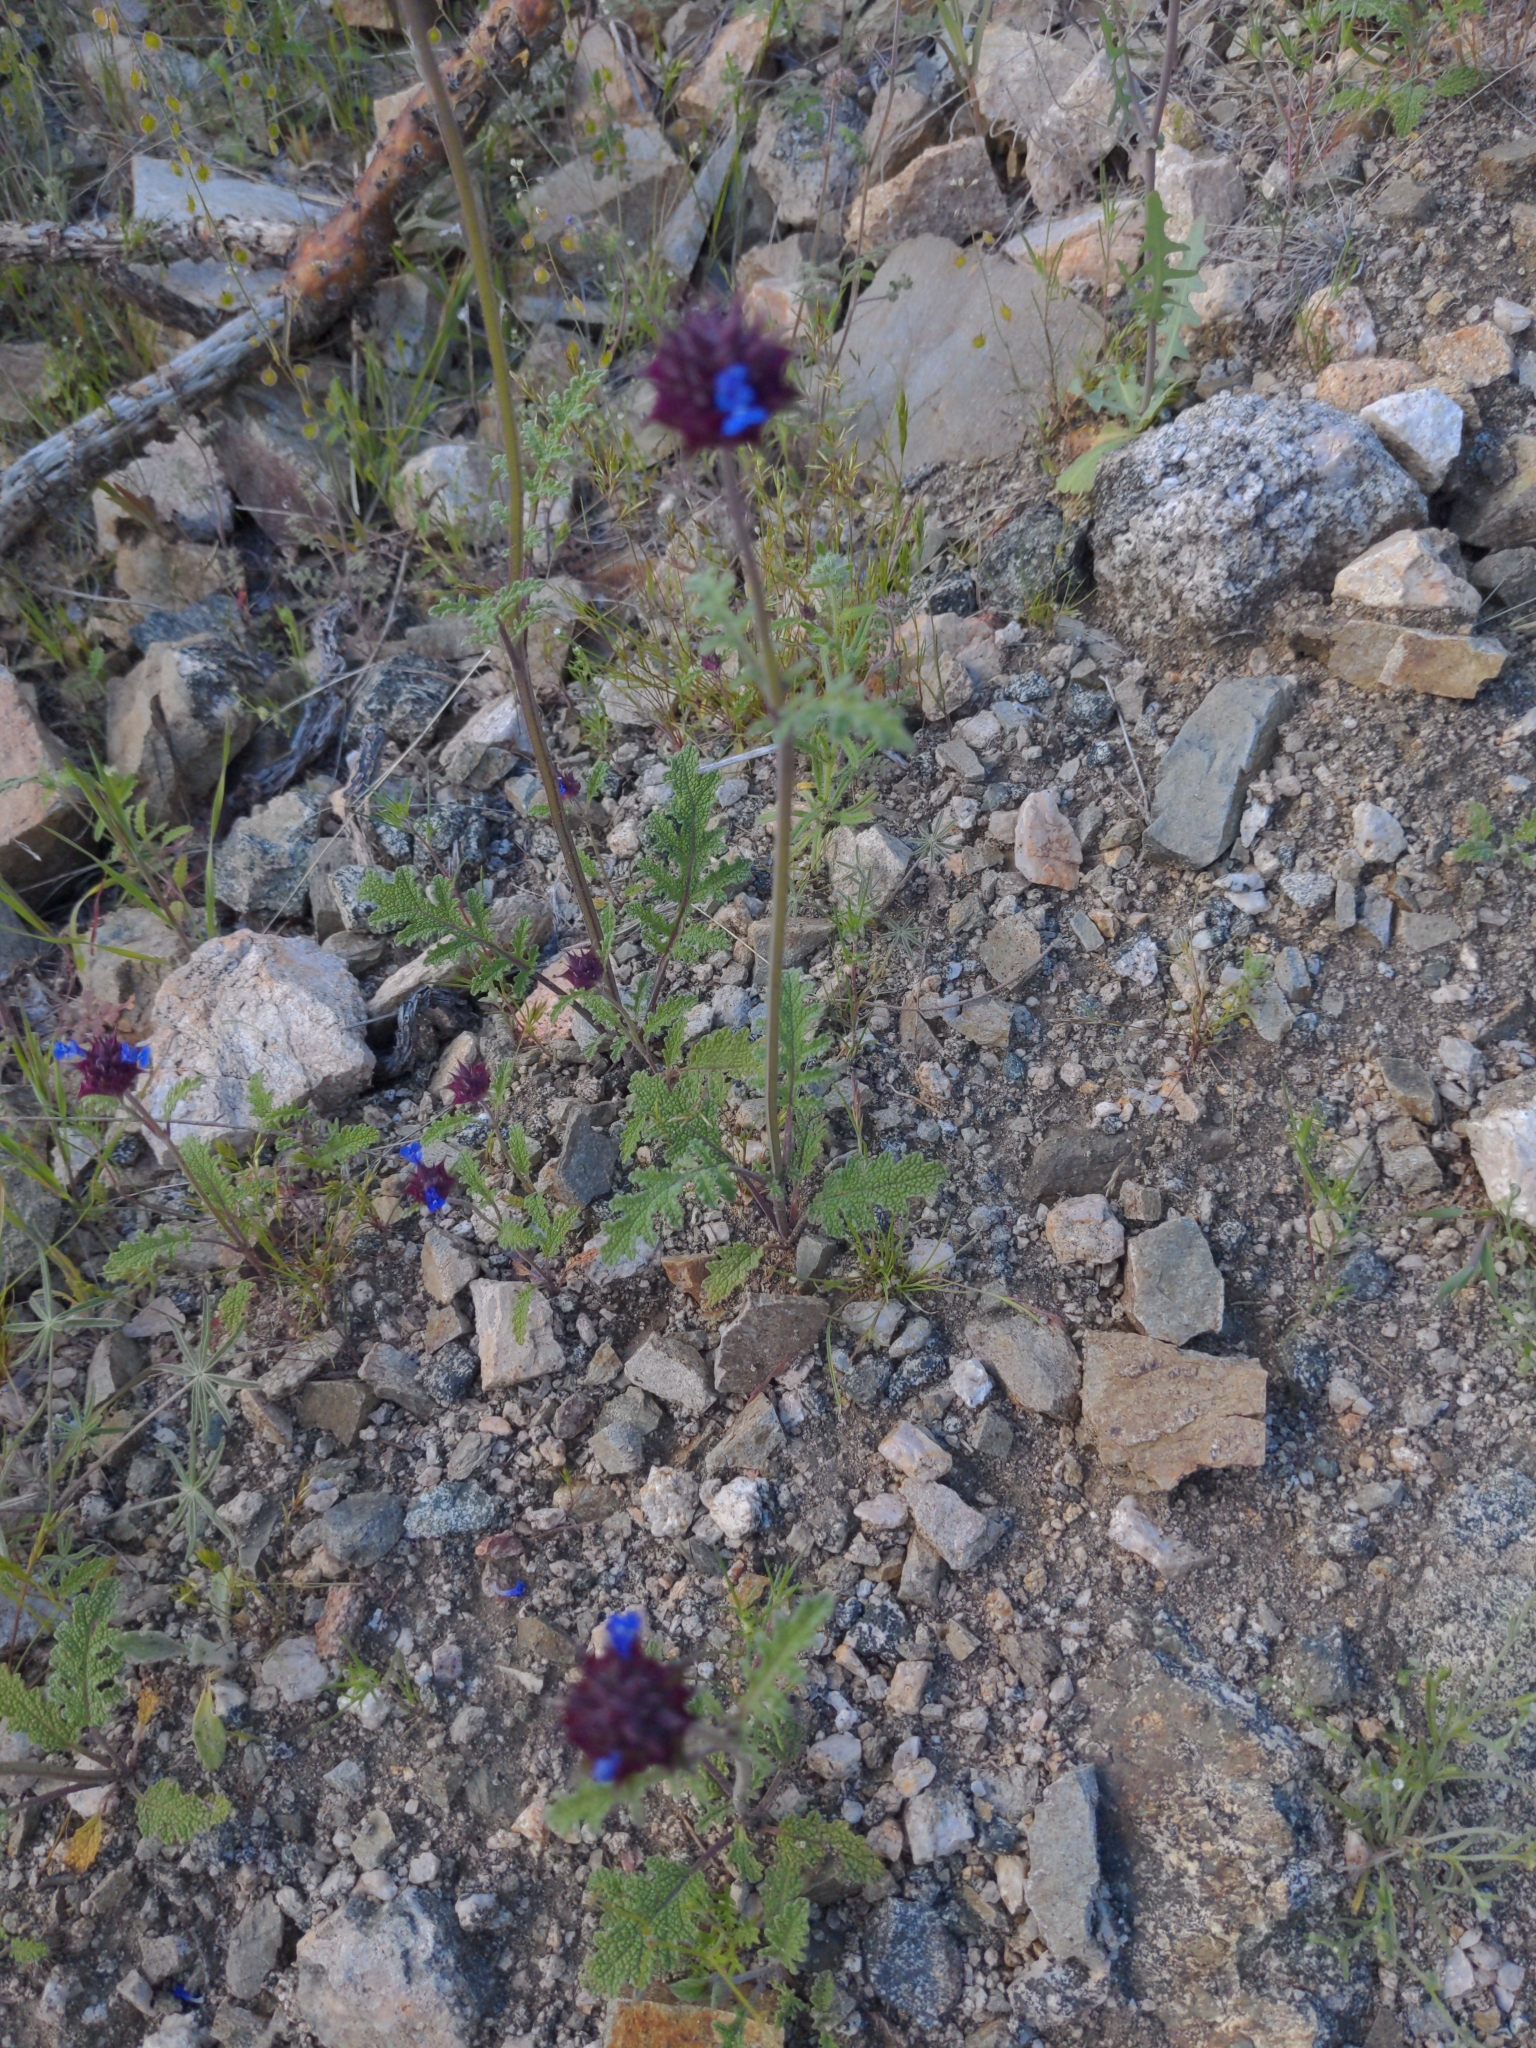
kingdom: Plantae
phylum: Tracheophyta
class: Magnoliopsida
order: Lamiales
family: Lamiaceae
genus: Salvia
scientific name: Salvia columbariae
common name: Chia
